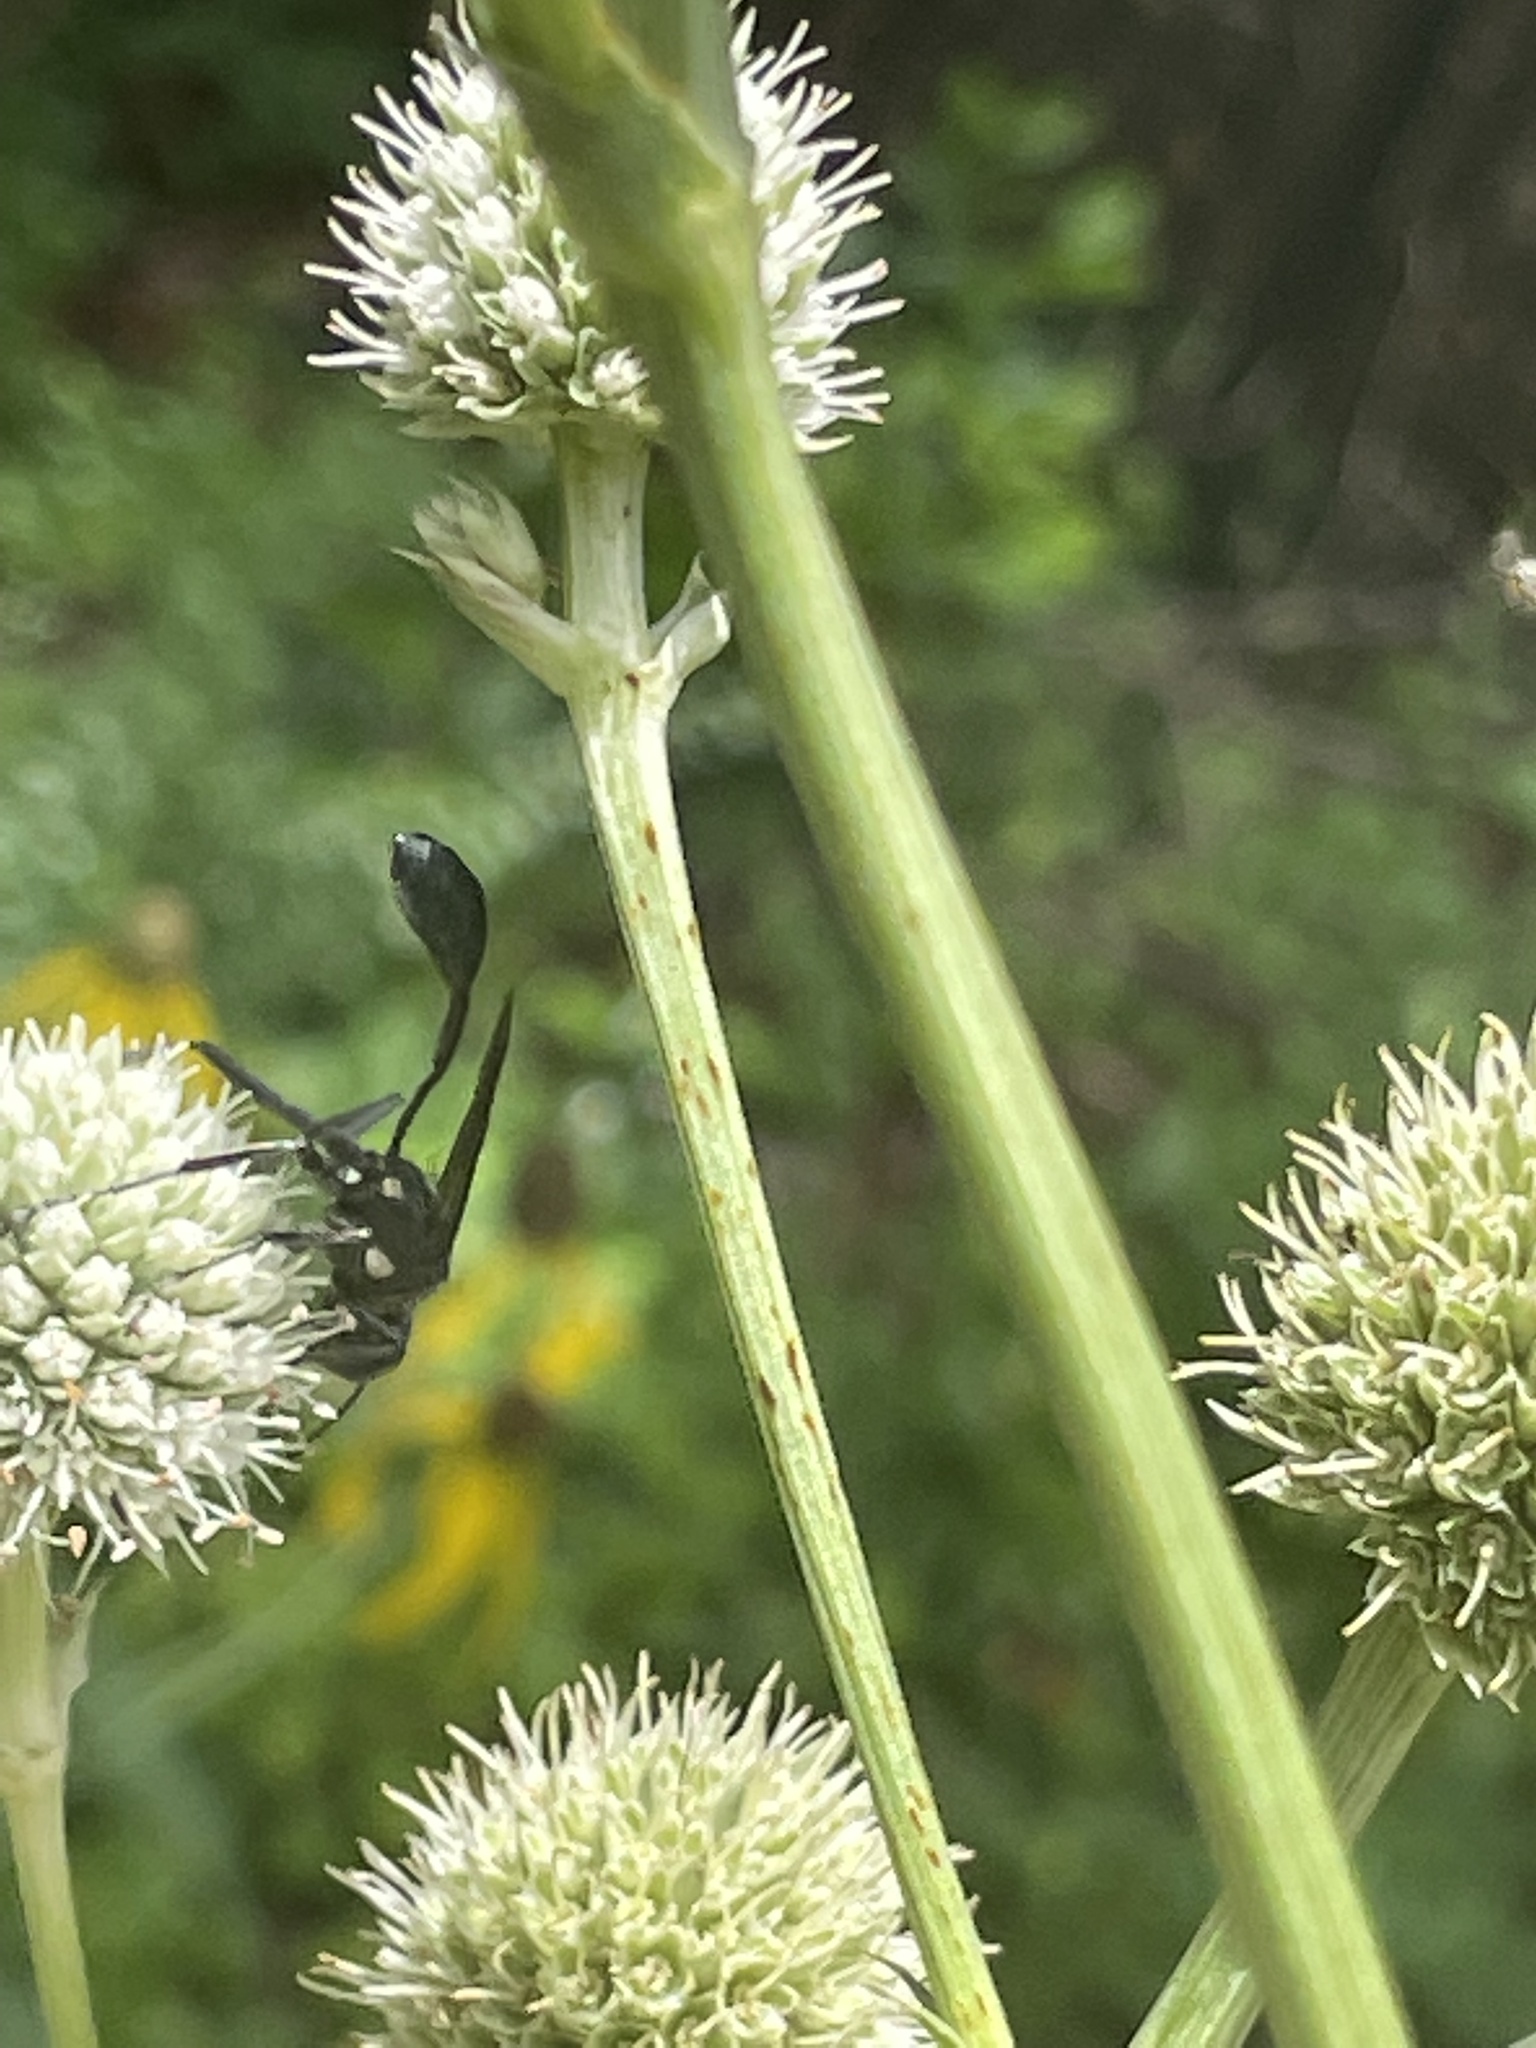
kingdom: Animalia
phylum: Arthropoda
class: Insecta
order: Hymenoptera
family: Sphecidae
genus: Eremnophila
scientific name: Eremnophila aureonotata
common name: Gold-marked thread-waisted wasp
